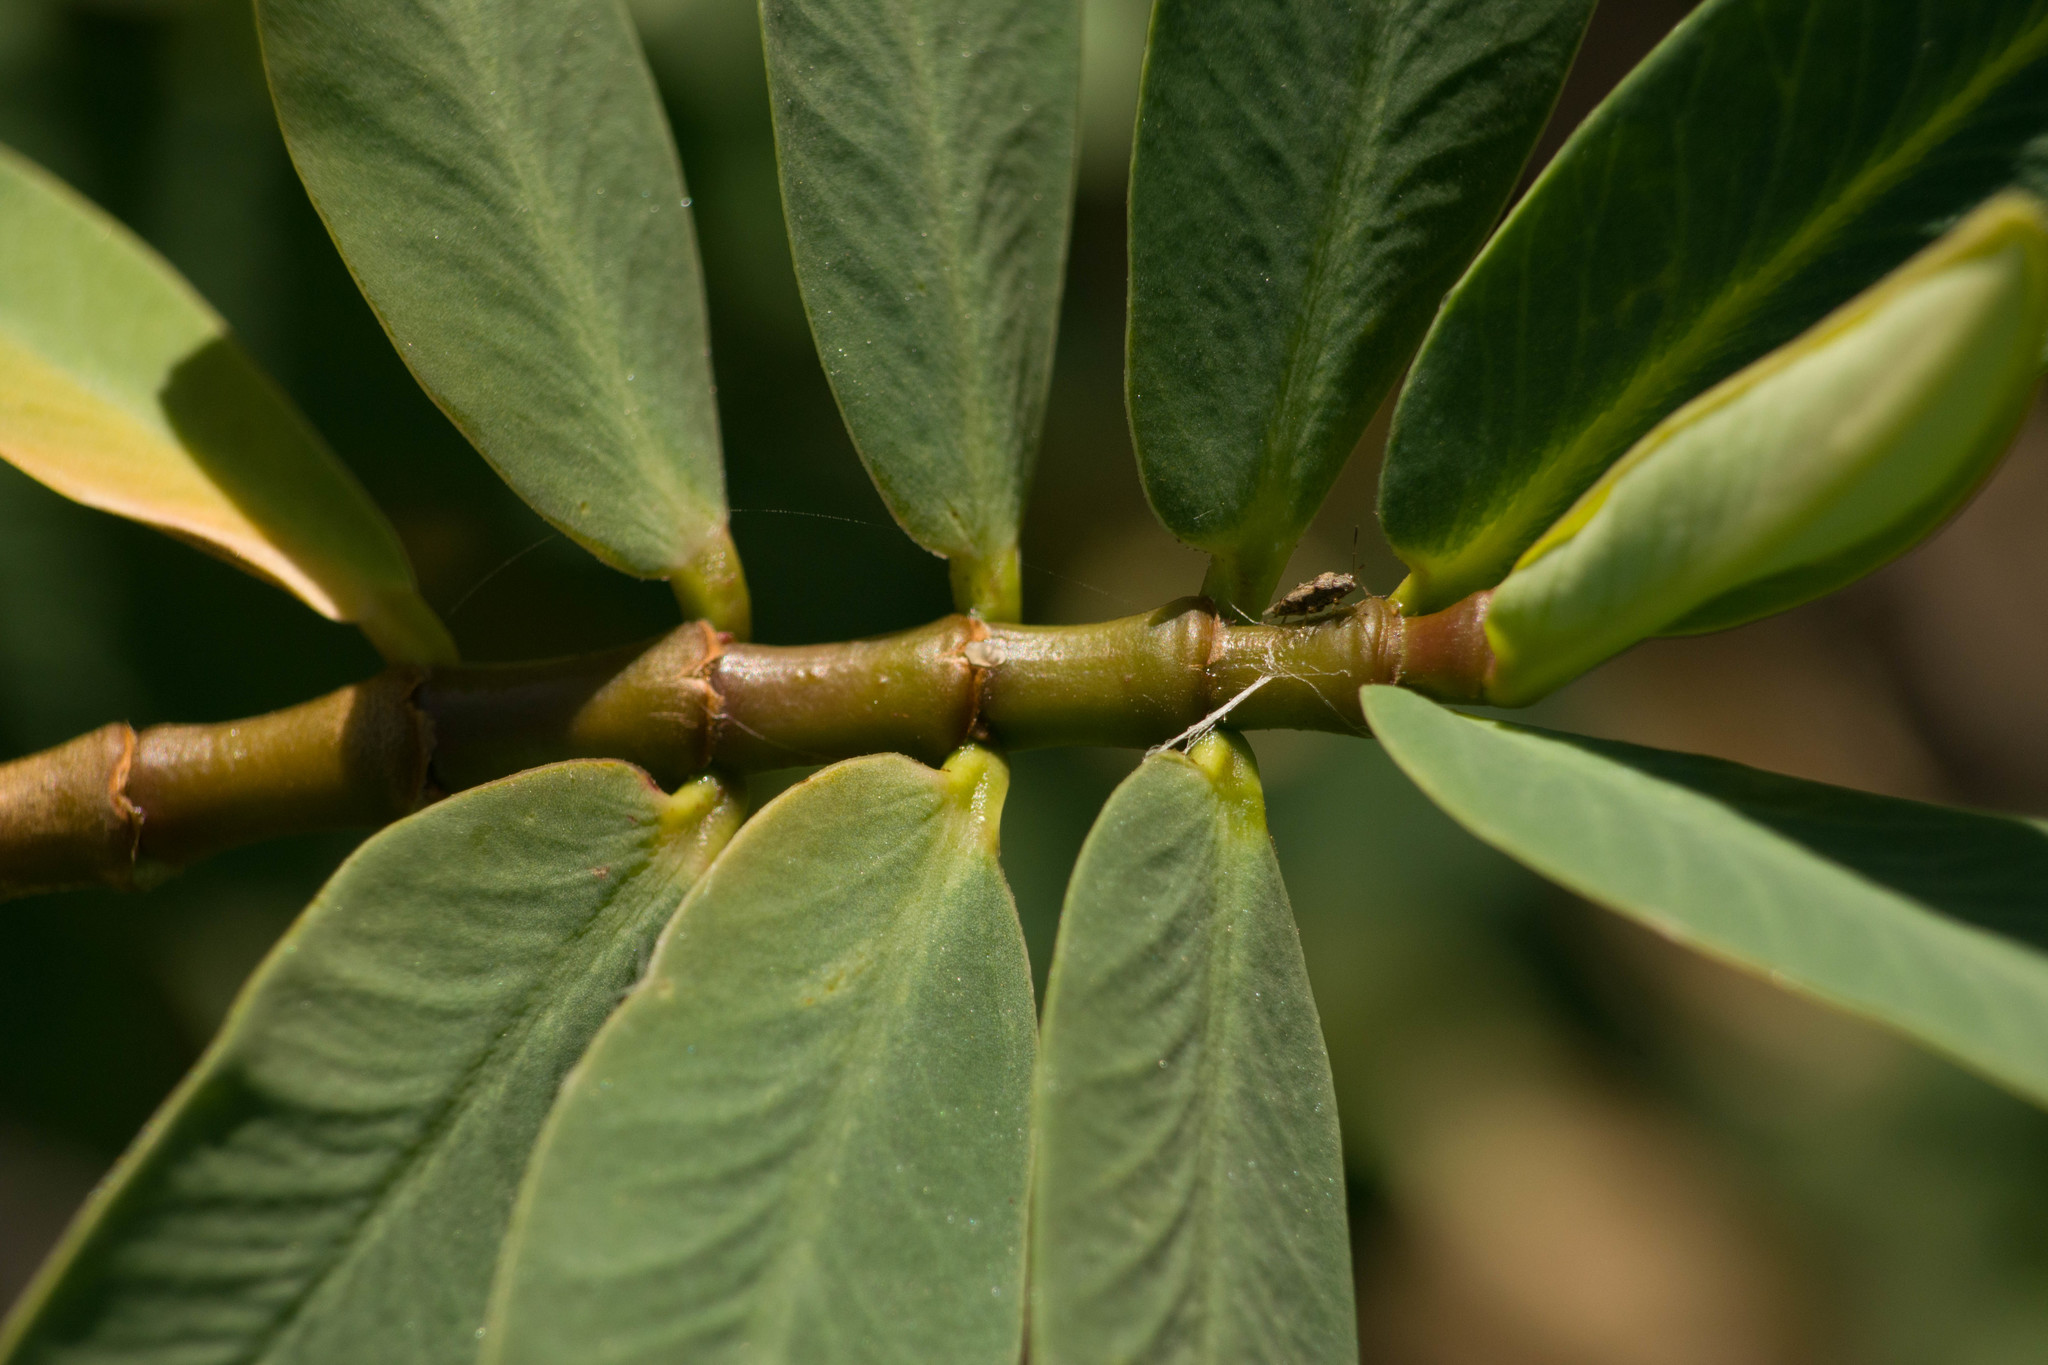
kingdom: Plantae
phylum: Tracheophyta
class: Magnoliopsida
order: Malpighiales
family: Euphorbiaceae
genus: Euphorbia
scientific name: Euphorbia celastroides
